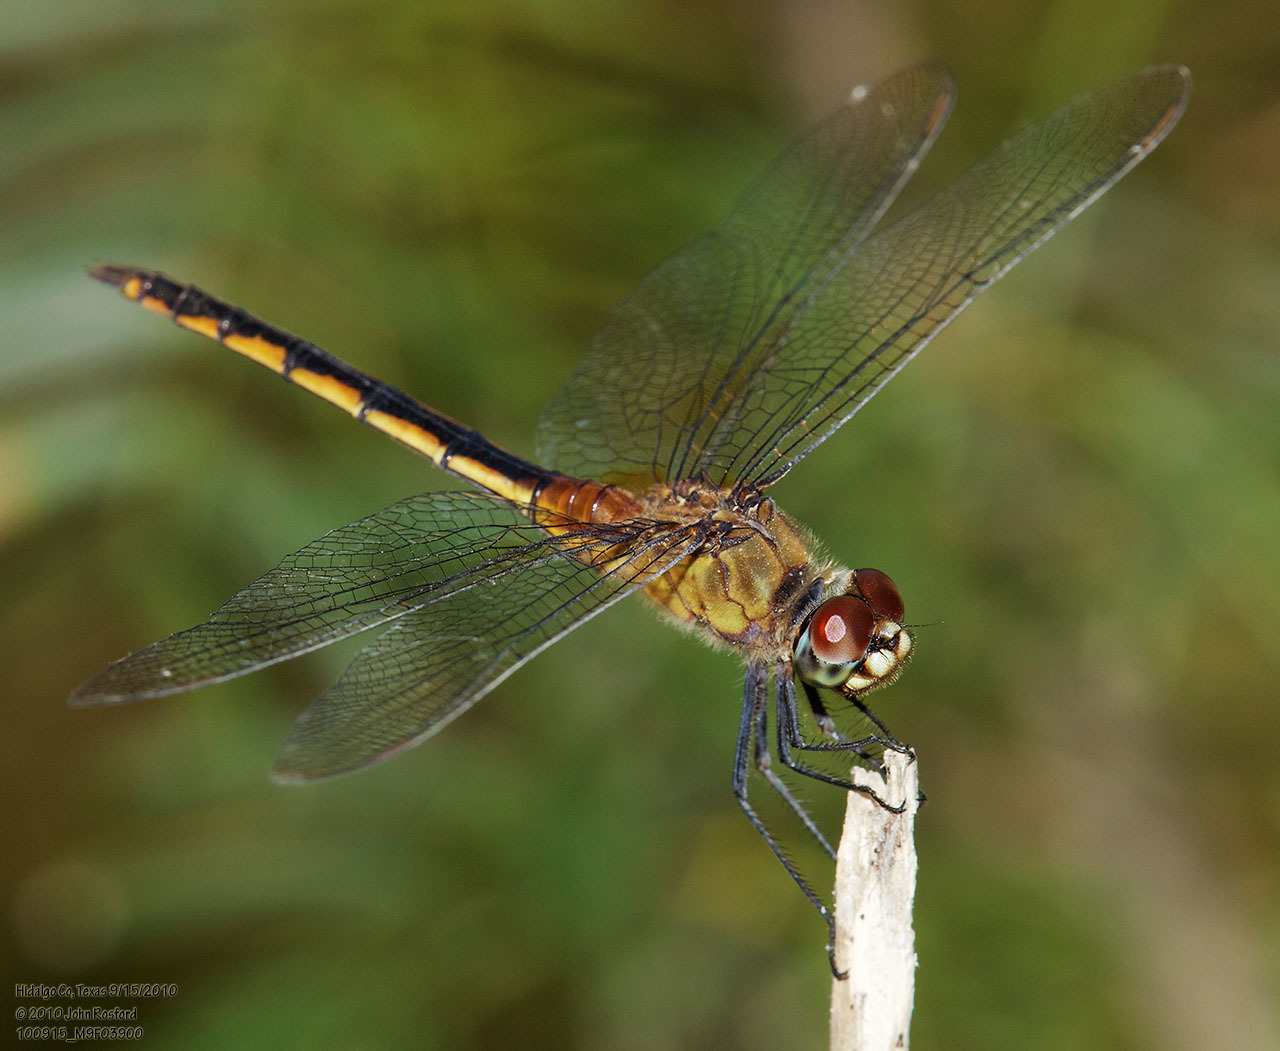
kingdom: Animalia
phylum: Arthropoda
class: Insecta
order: Odonata
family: Libellulidae
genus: Brachymesia
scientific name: Brachymesia herbida
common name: Tawny pennant
